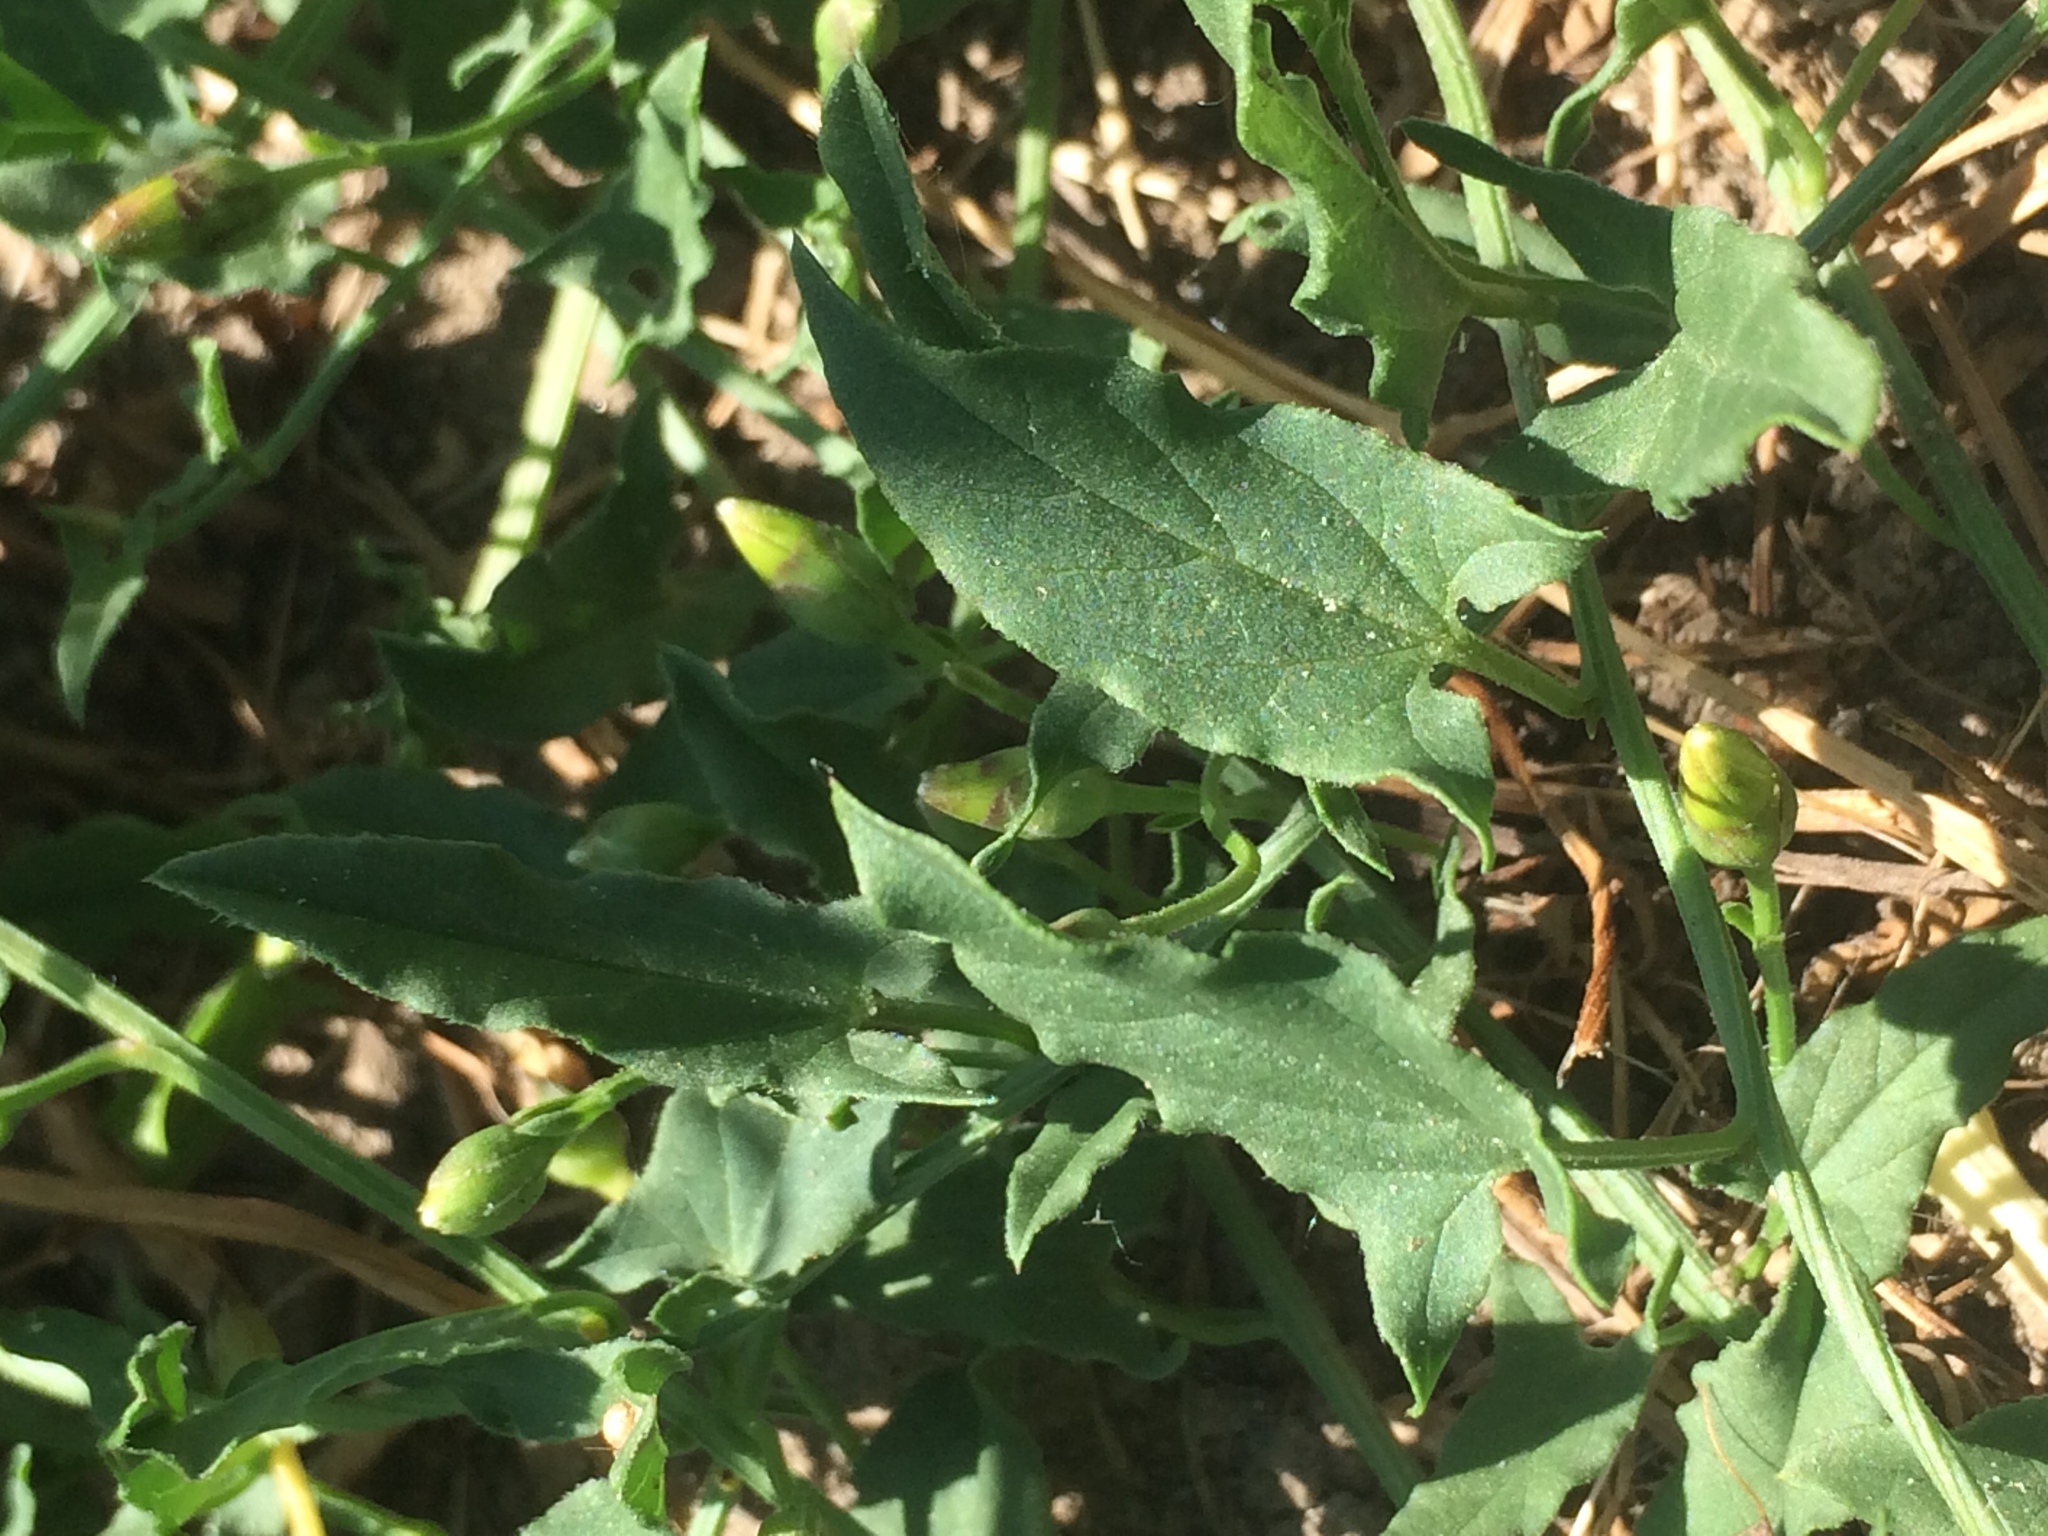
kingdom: Plantae
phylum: Tracheophyta
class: Magnoliopsida
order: Solanales
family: Convolvulaceae
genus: Convolvulus
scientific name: Convolvulus arvensis
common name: Field bindweed
